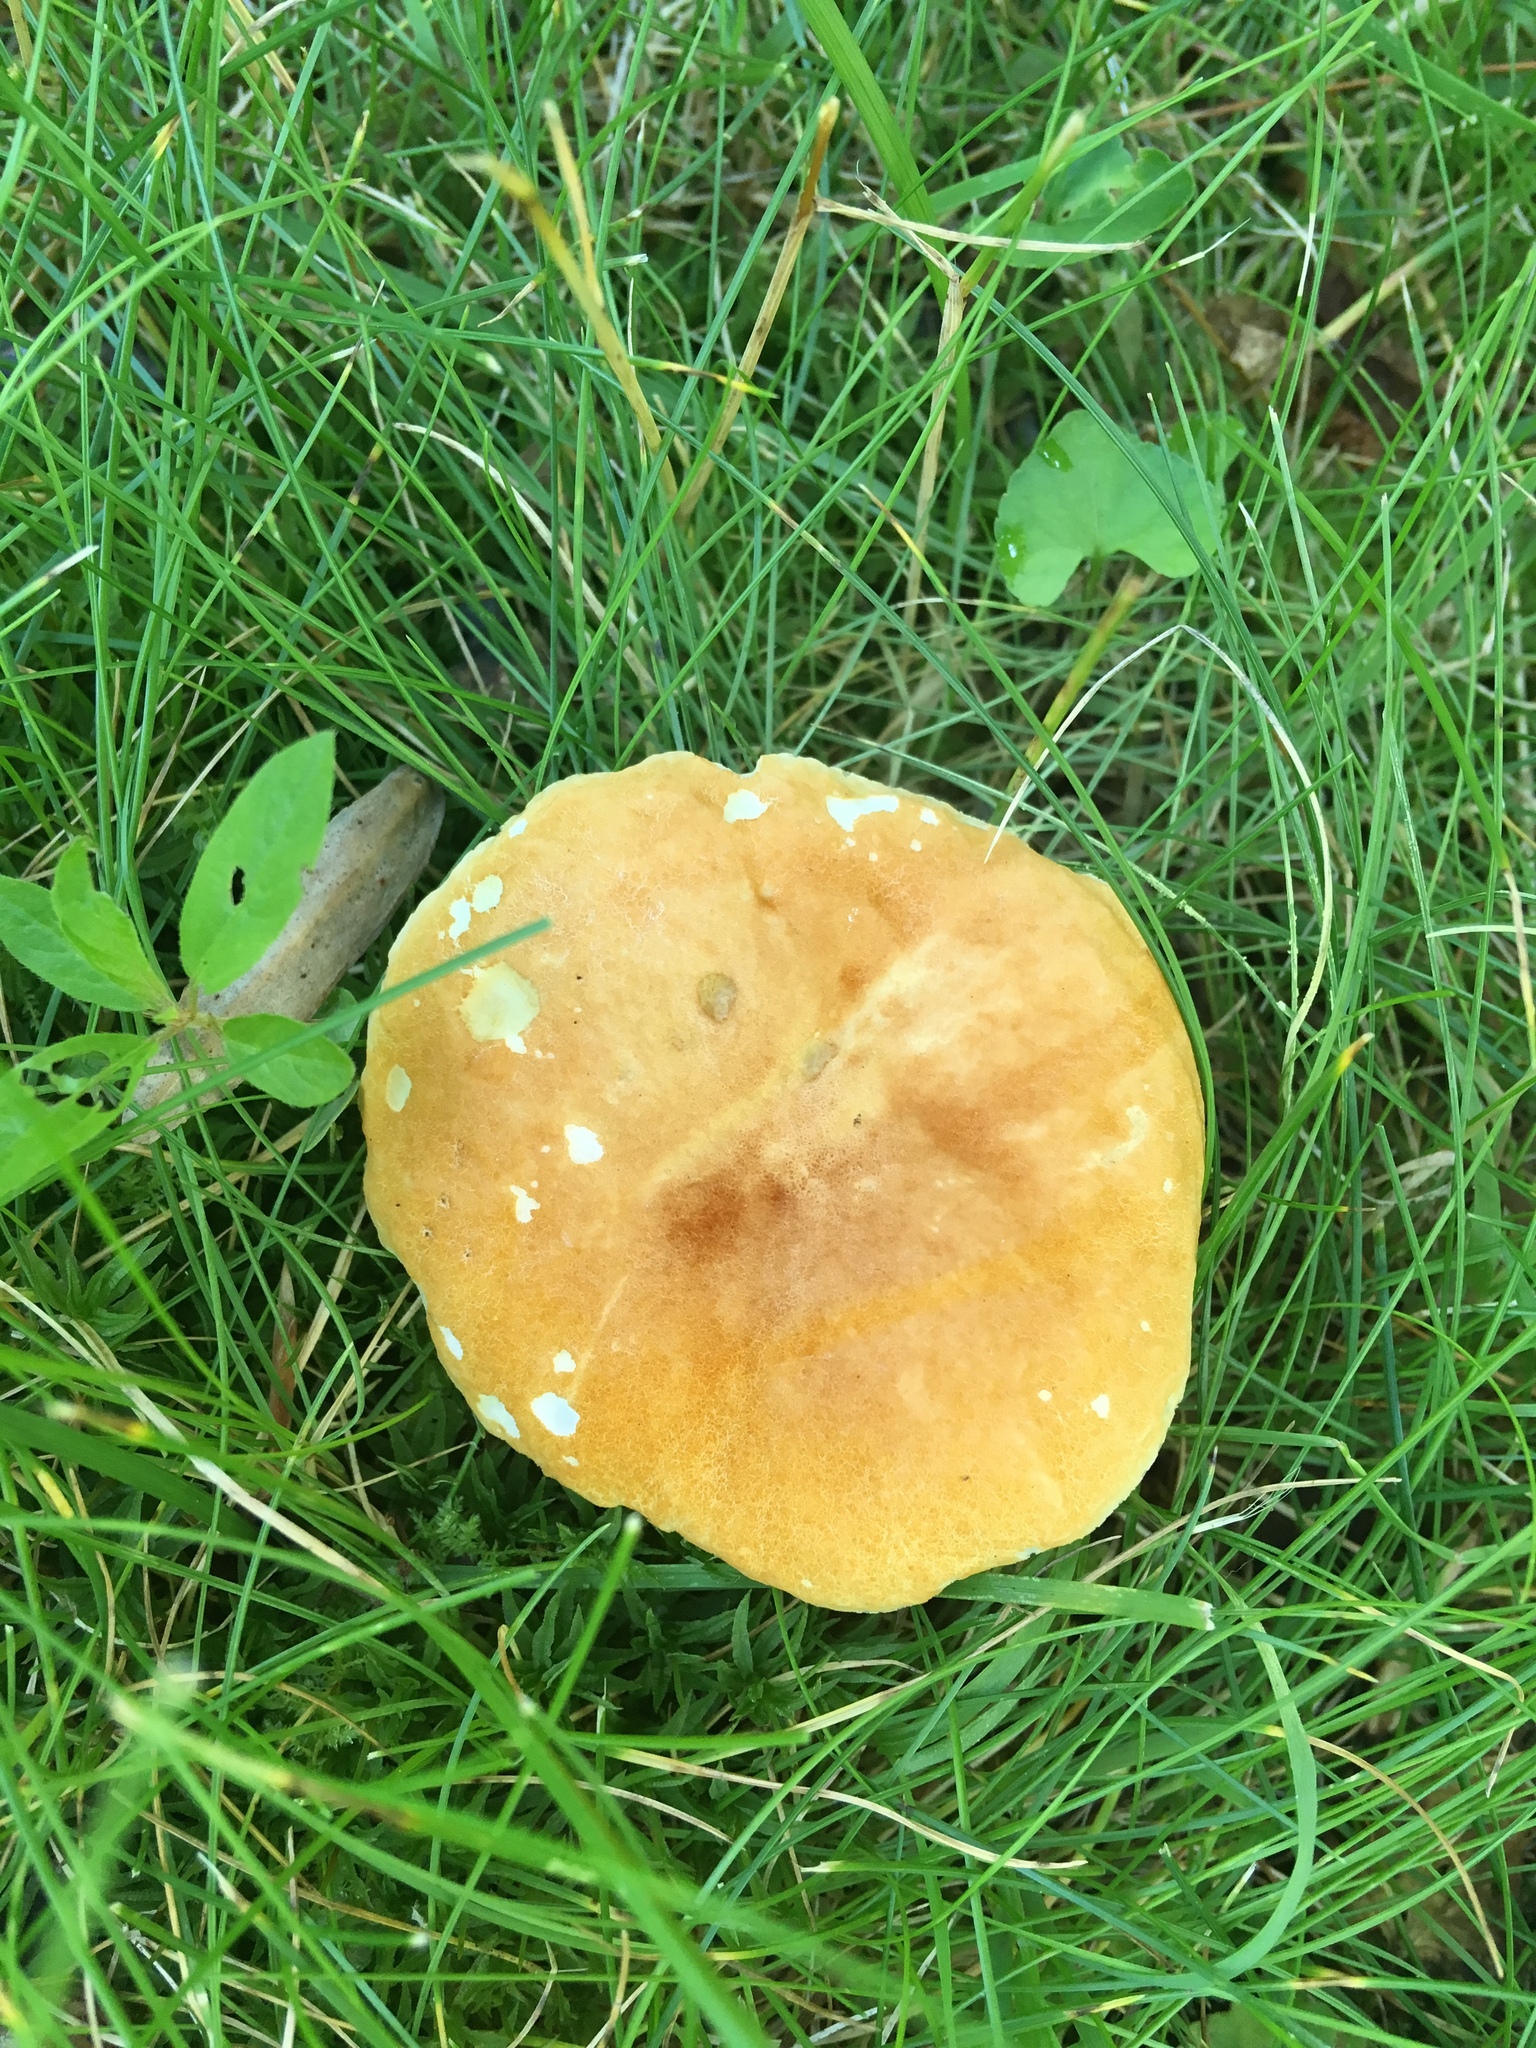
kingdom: Fungi
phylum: Basidiomycota
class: Agaricomycetes
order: Boletales
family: Gyroporaceae
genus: Gyroporus
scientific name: Gyroporus castaneus
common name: Chestnut bolete
